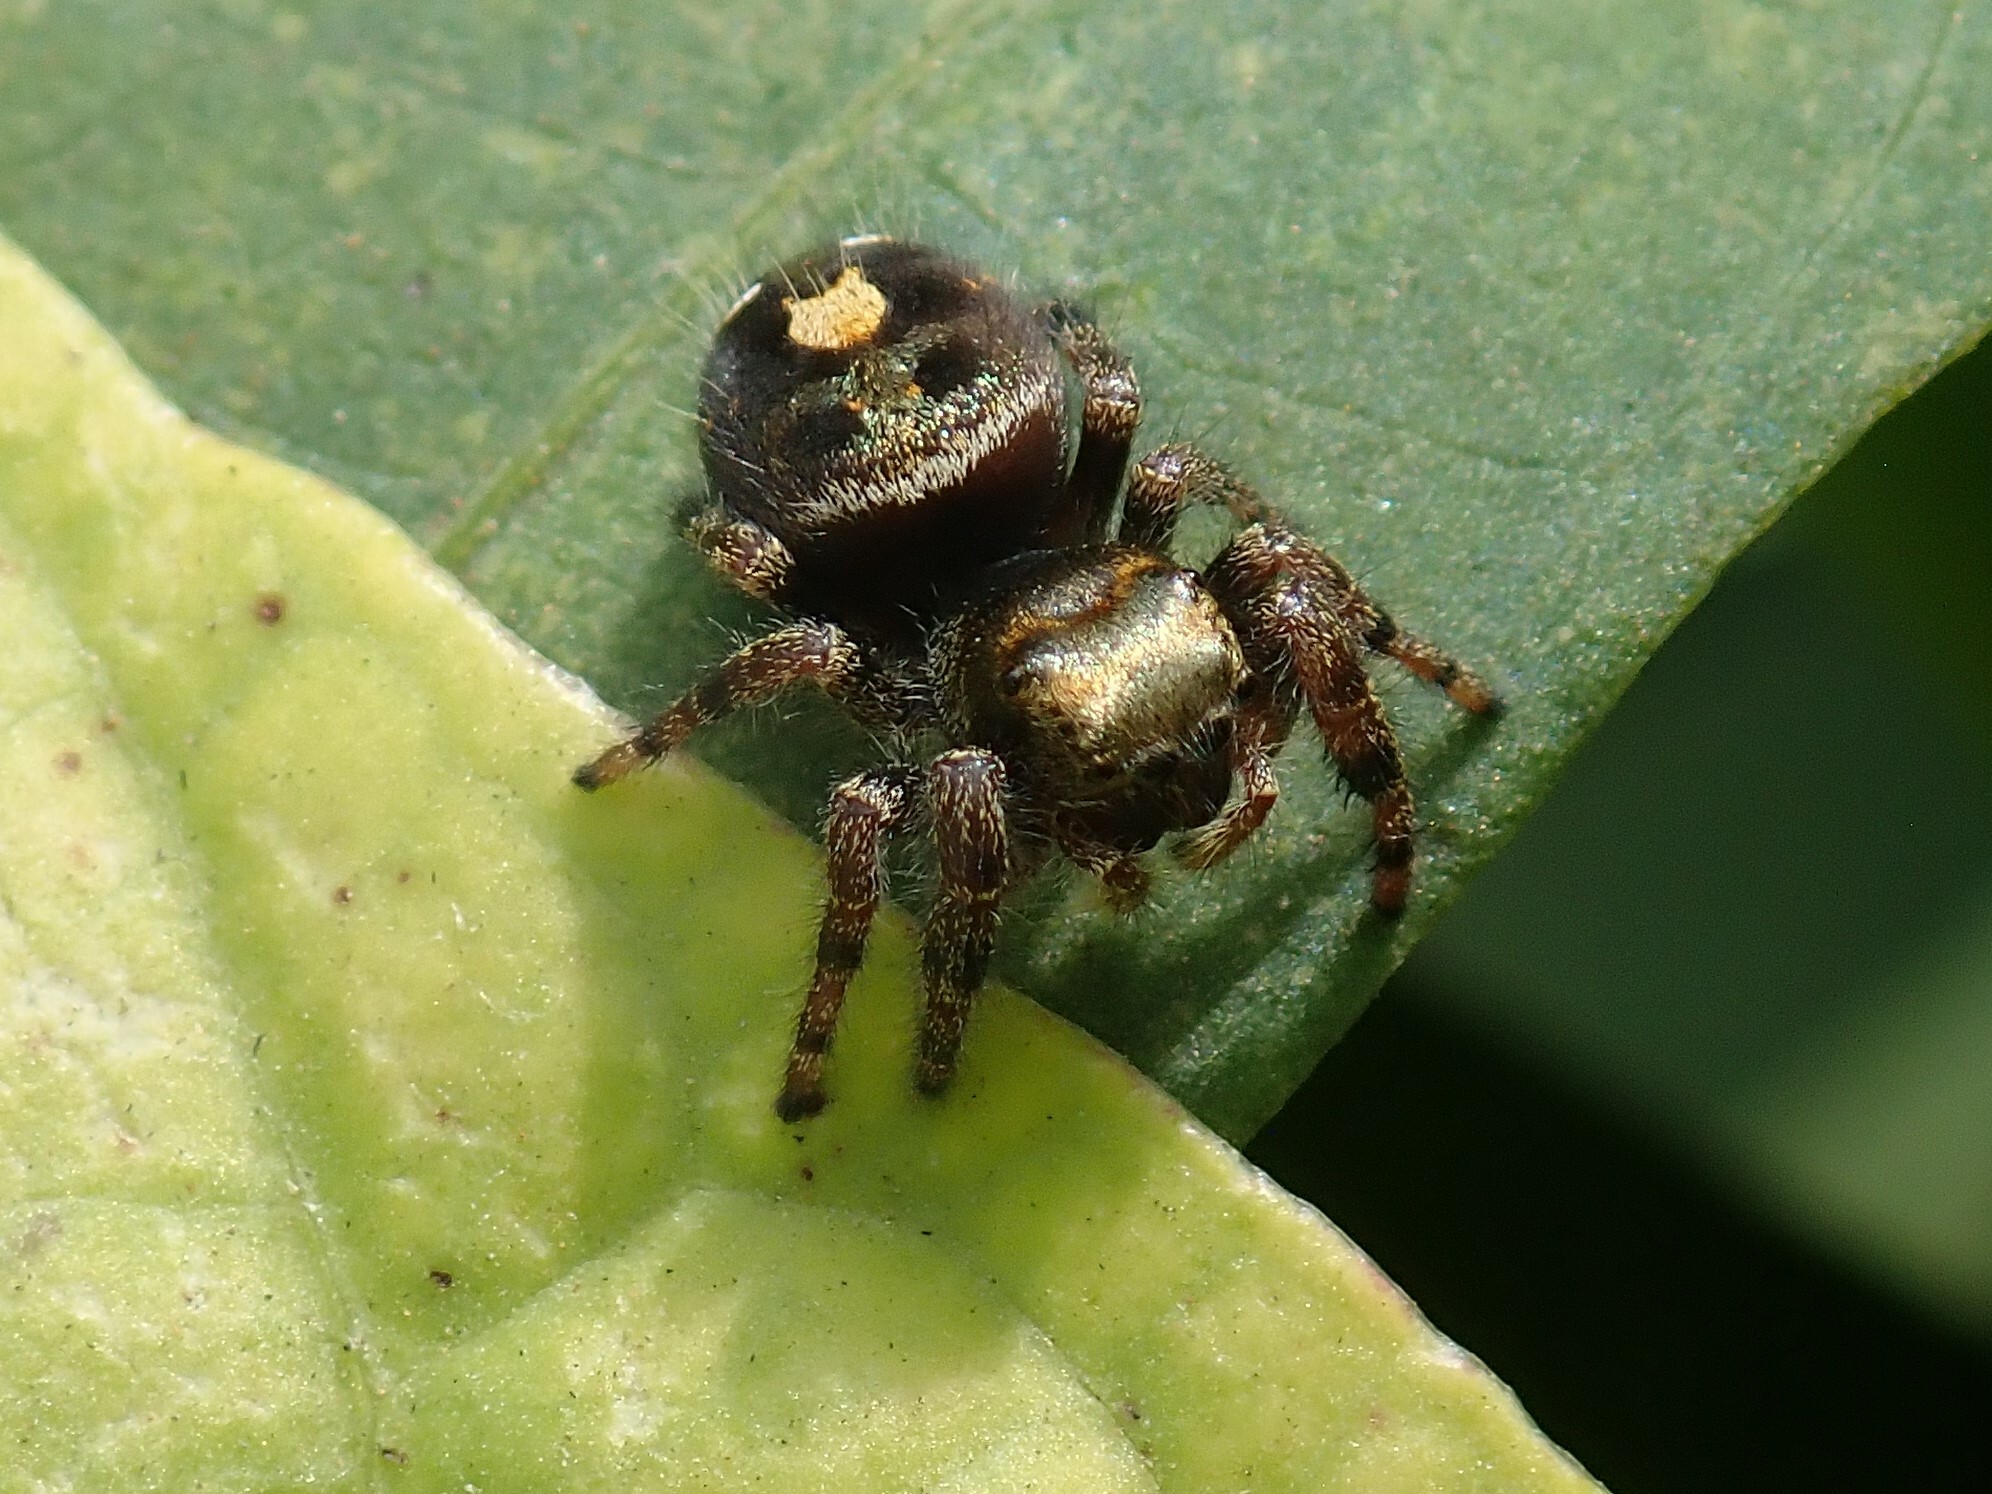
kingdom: Animalia
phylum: Arthropoda
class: Arachnida
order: Araneae
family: Salticidae
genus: Phidippus
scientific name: Phidippus audax
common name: Bold jumper
